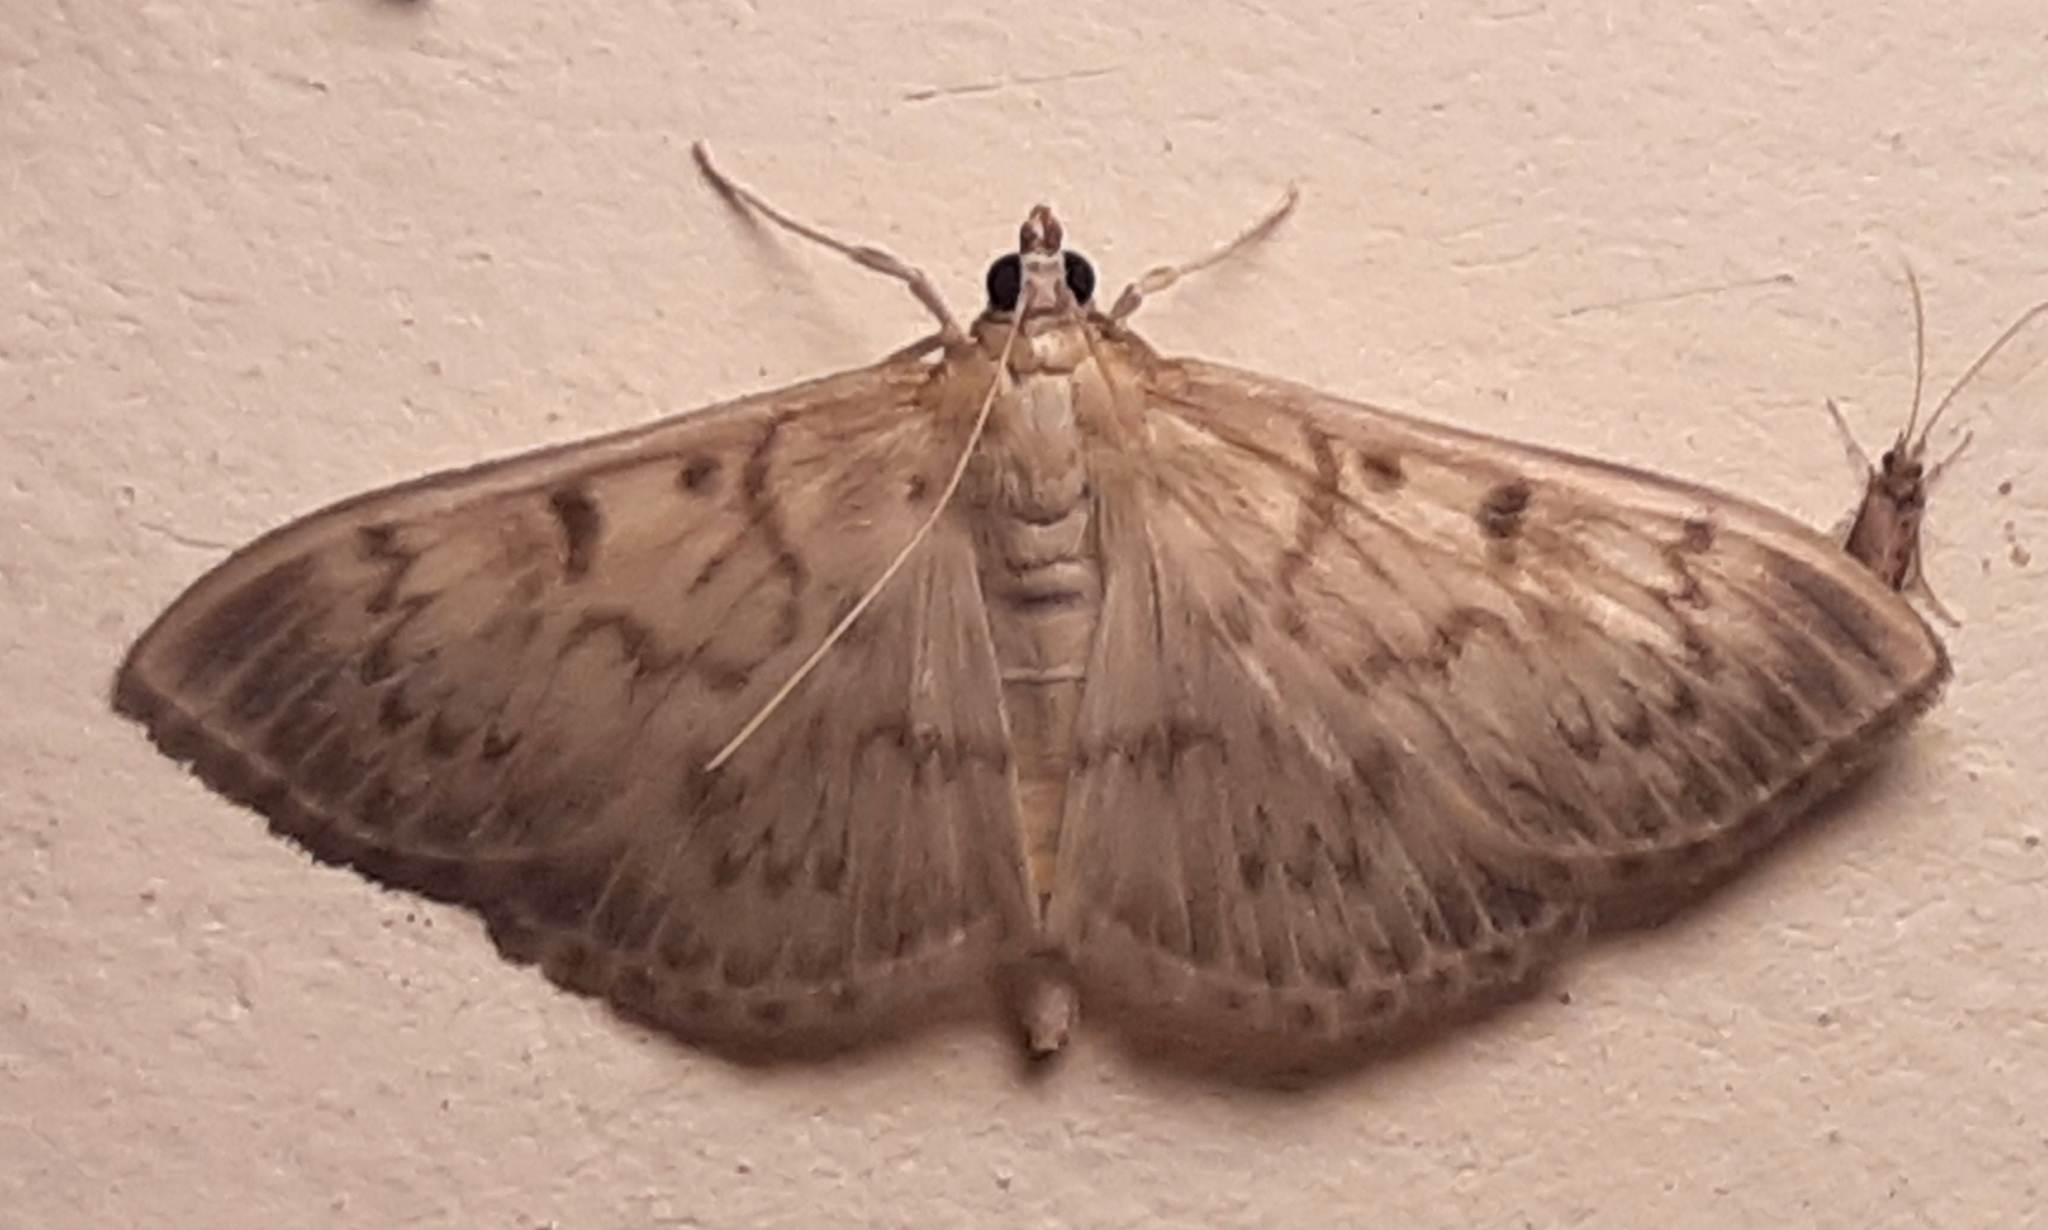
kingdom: Animalia
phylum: Arthropoda
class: Insecta
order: Lepidoptera
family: Crambidae
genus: Patania
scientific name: Patania ruralis
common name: Mother of pearl
